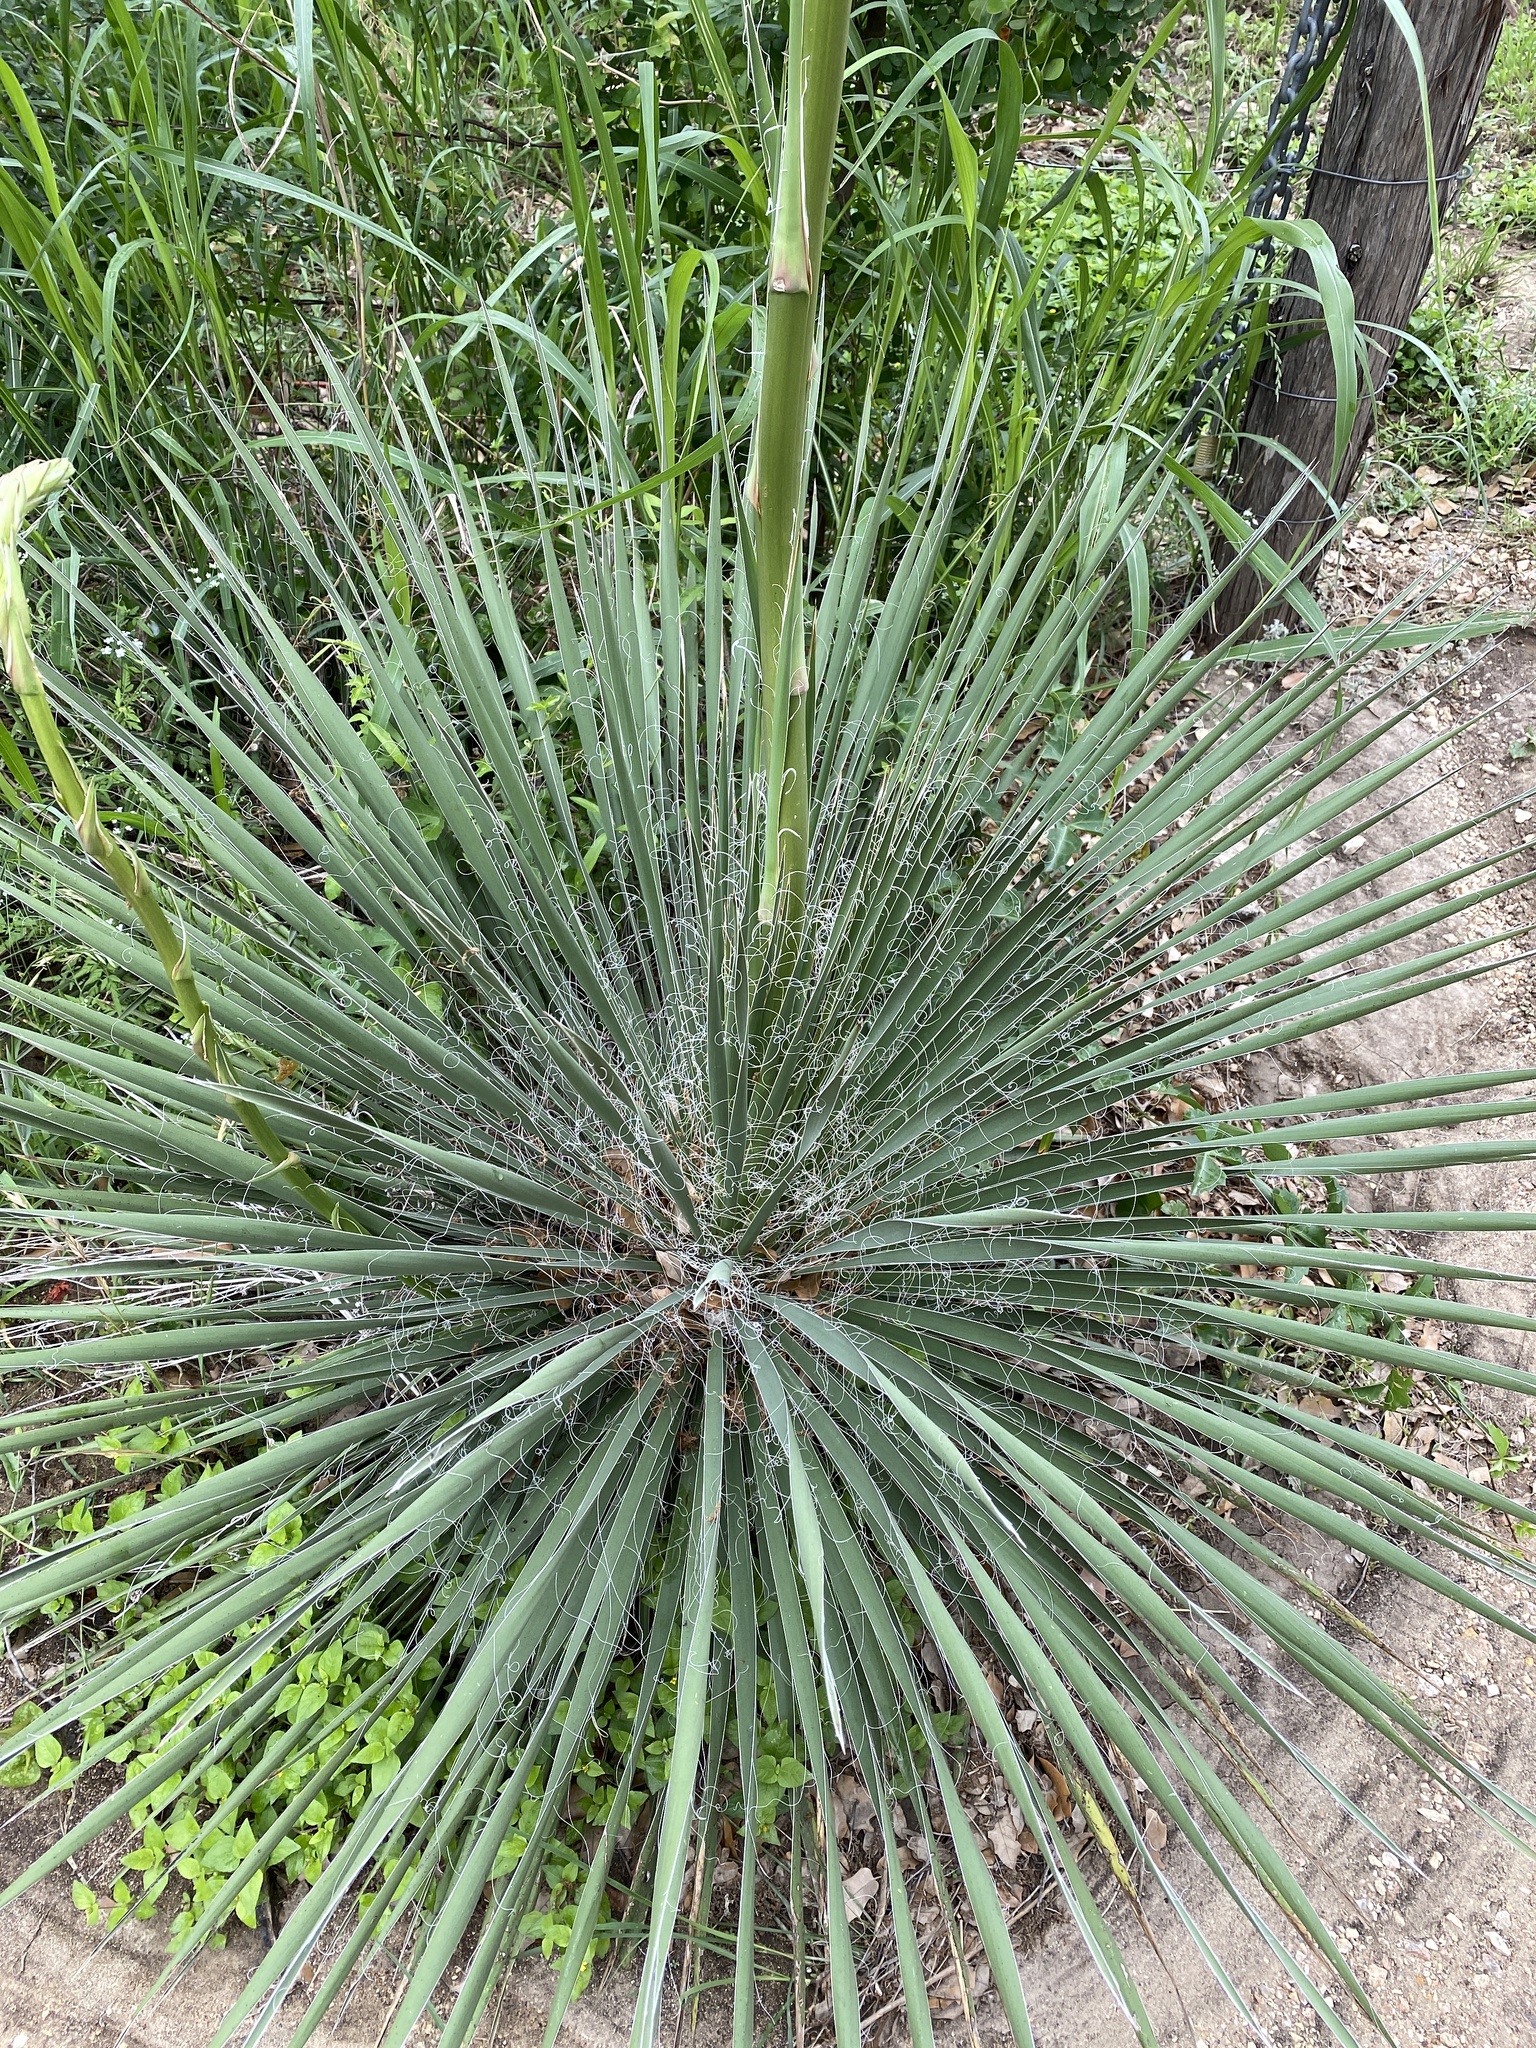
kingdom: Plantae
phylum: Tracheophyta
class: Liliopsida
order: Asparagales
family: Asparagaceae
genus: Yucca
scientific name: Yucca constricta
